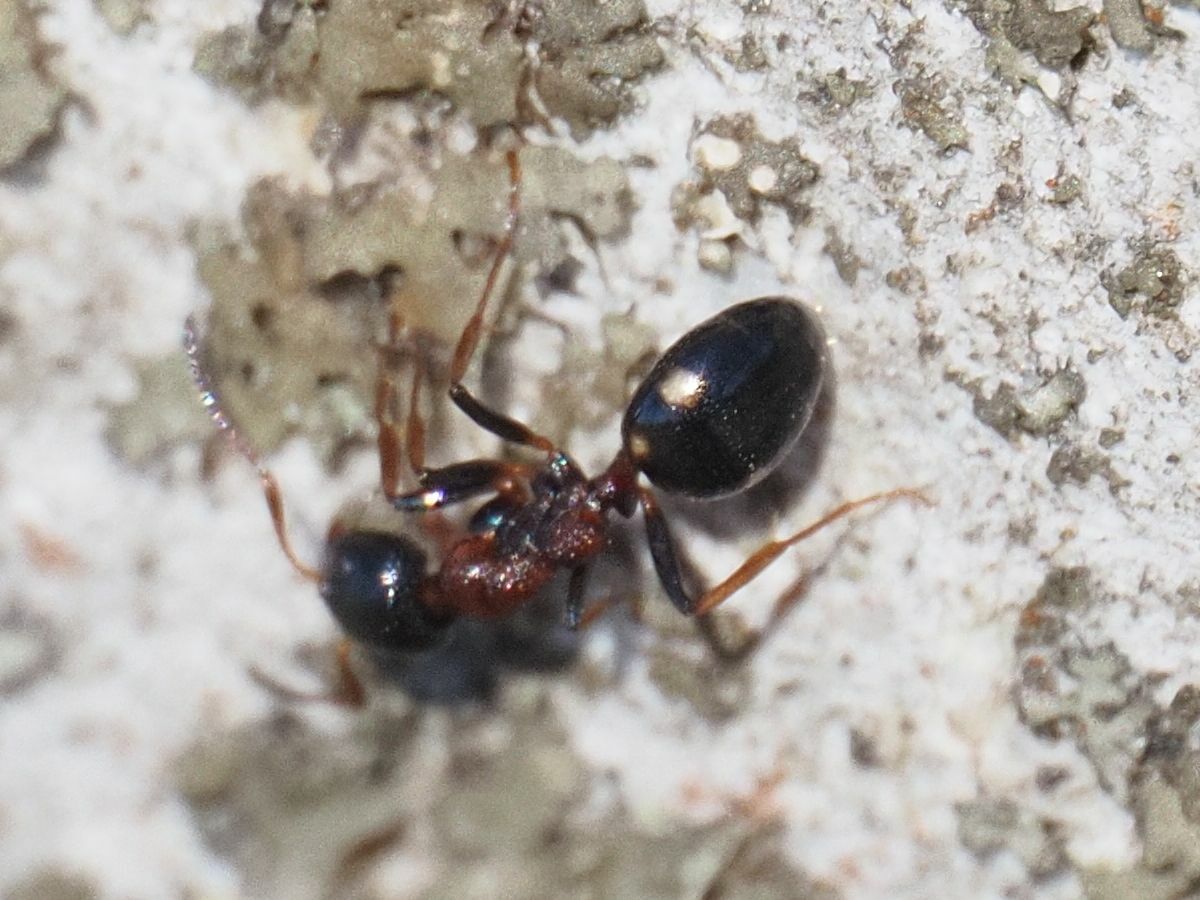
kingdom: Animalia
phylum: Arthropoda
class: Insecta
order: Hymenoptera
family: Formicidae
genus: Dolichoderus
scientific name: Dolichoderus quadripunctatus
